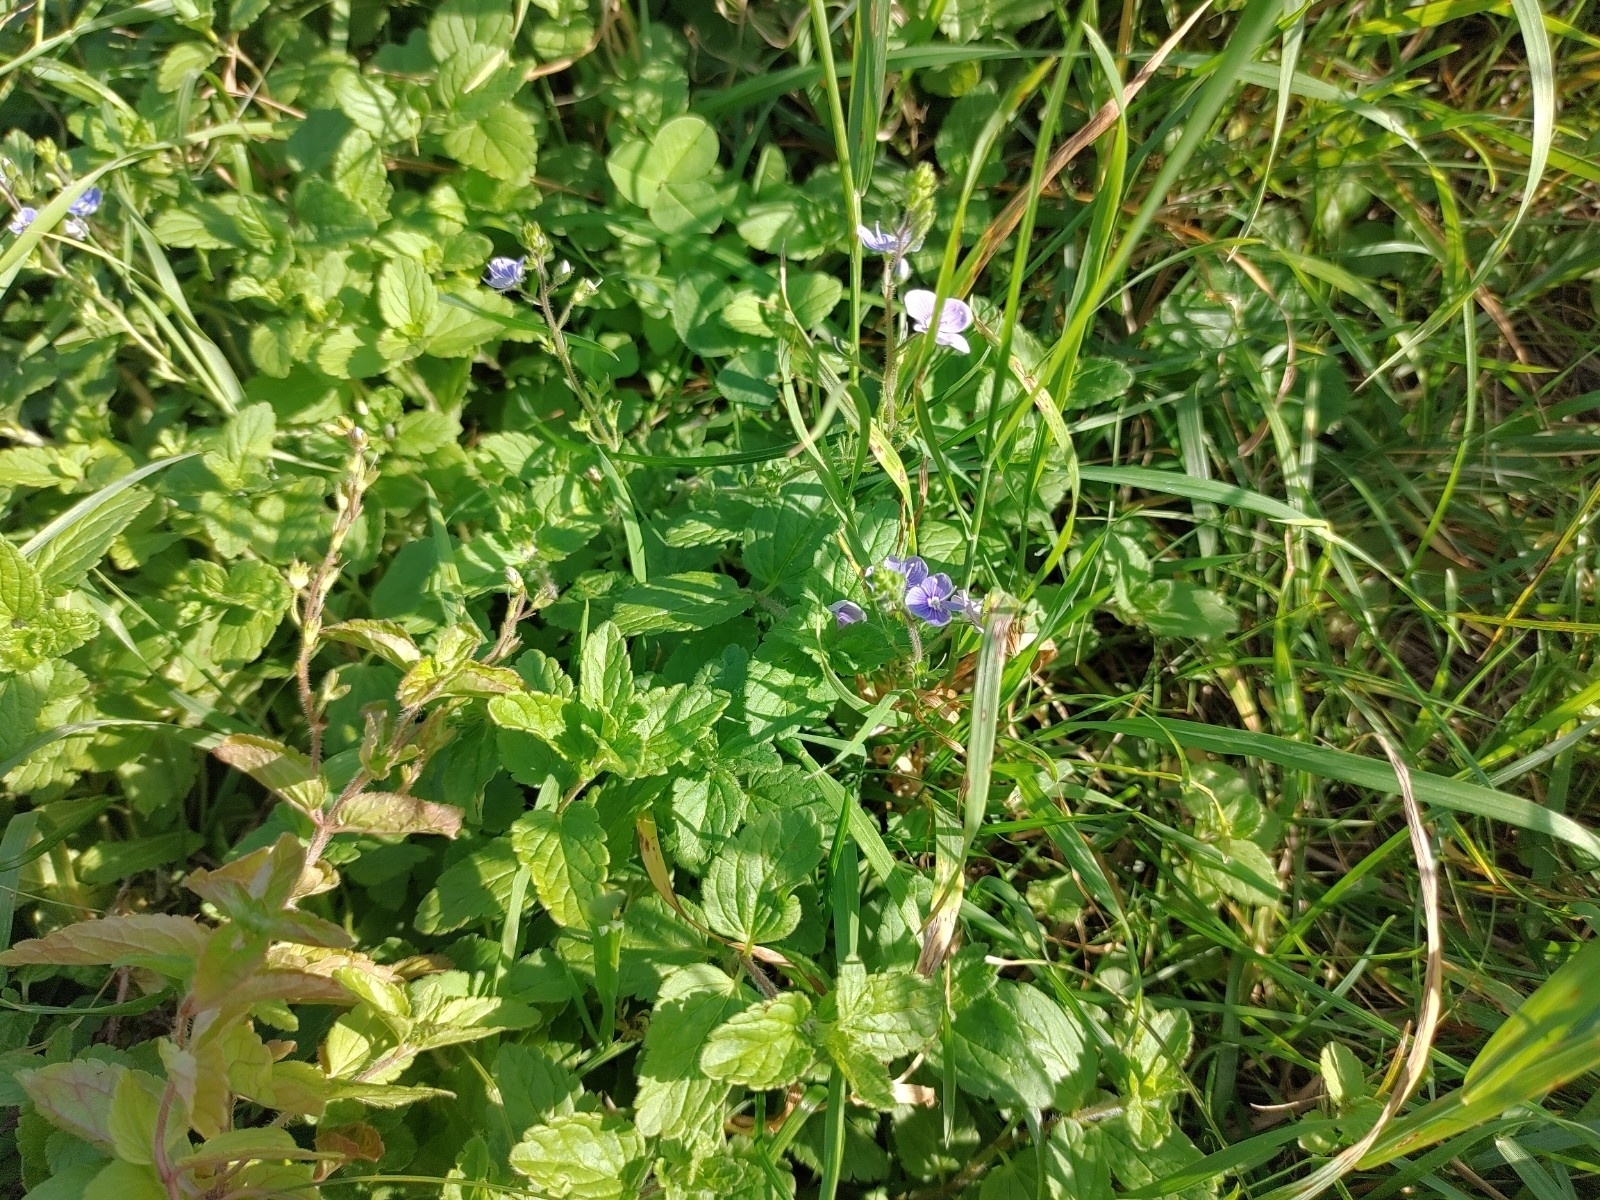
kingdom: Plantae
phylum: Tracheophyta
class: Magnoliopsida
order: Lamiales
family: Plantaginaceae
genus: Veronica
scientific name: Veronica chamaedrys
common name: Germander speedwell
